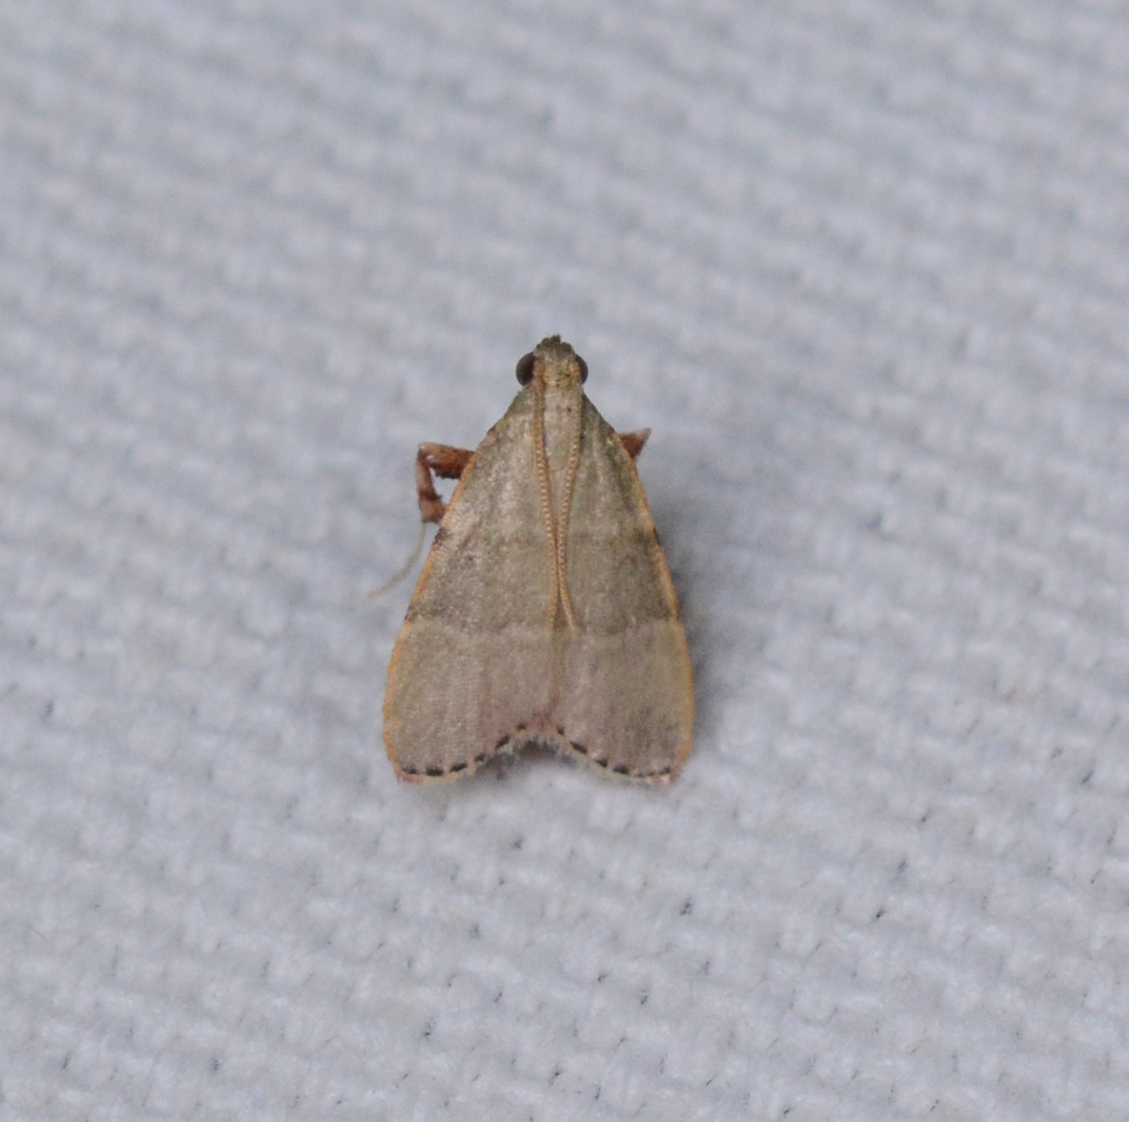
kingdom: Animalia
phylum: Arthropoda
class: Insecta
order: Lepidoptera
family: Pyralidae
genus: Basacallis
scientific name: Basacallis tarachodes
